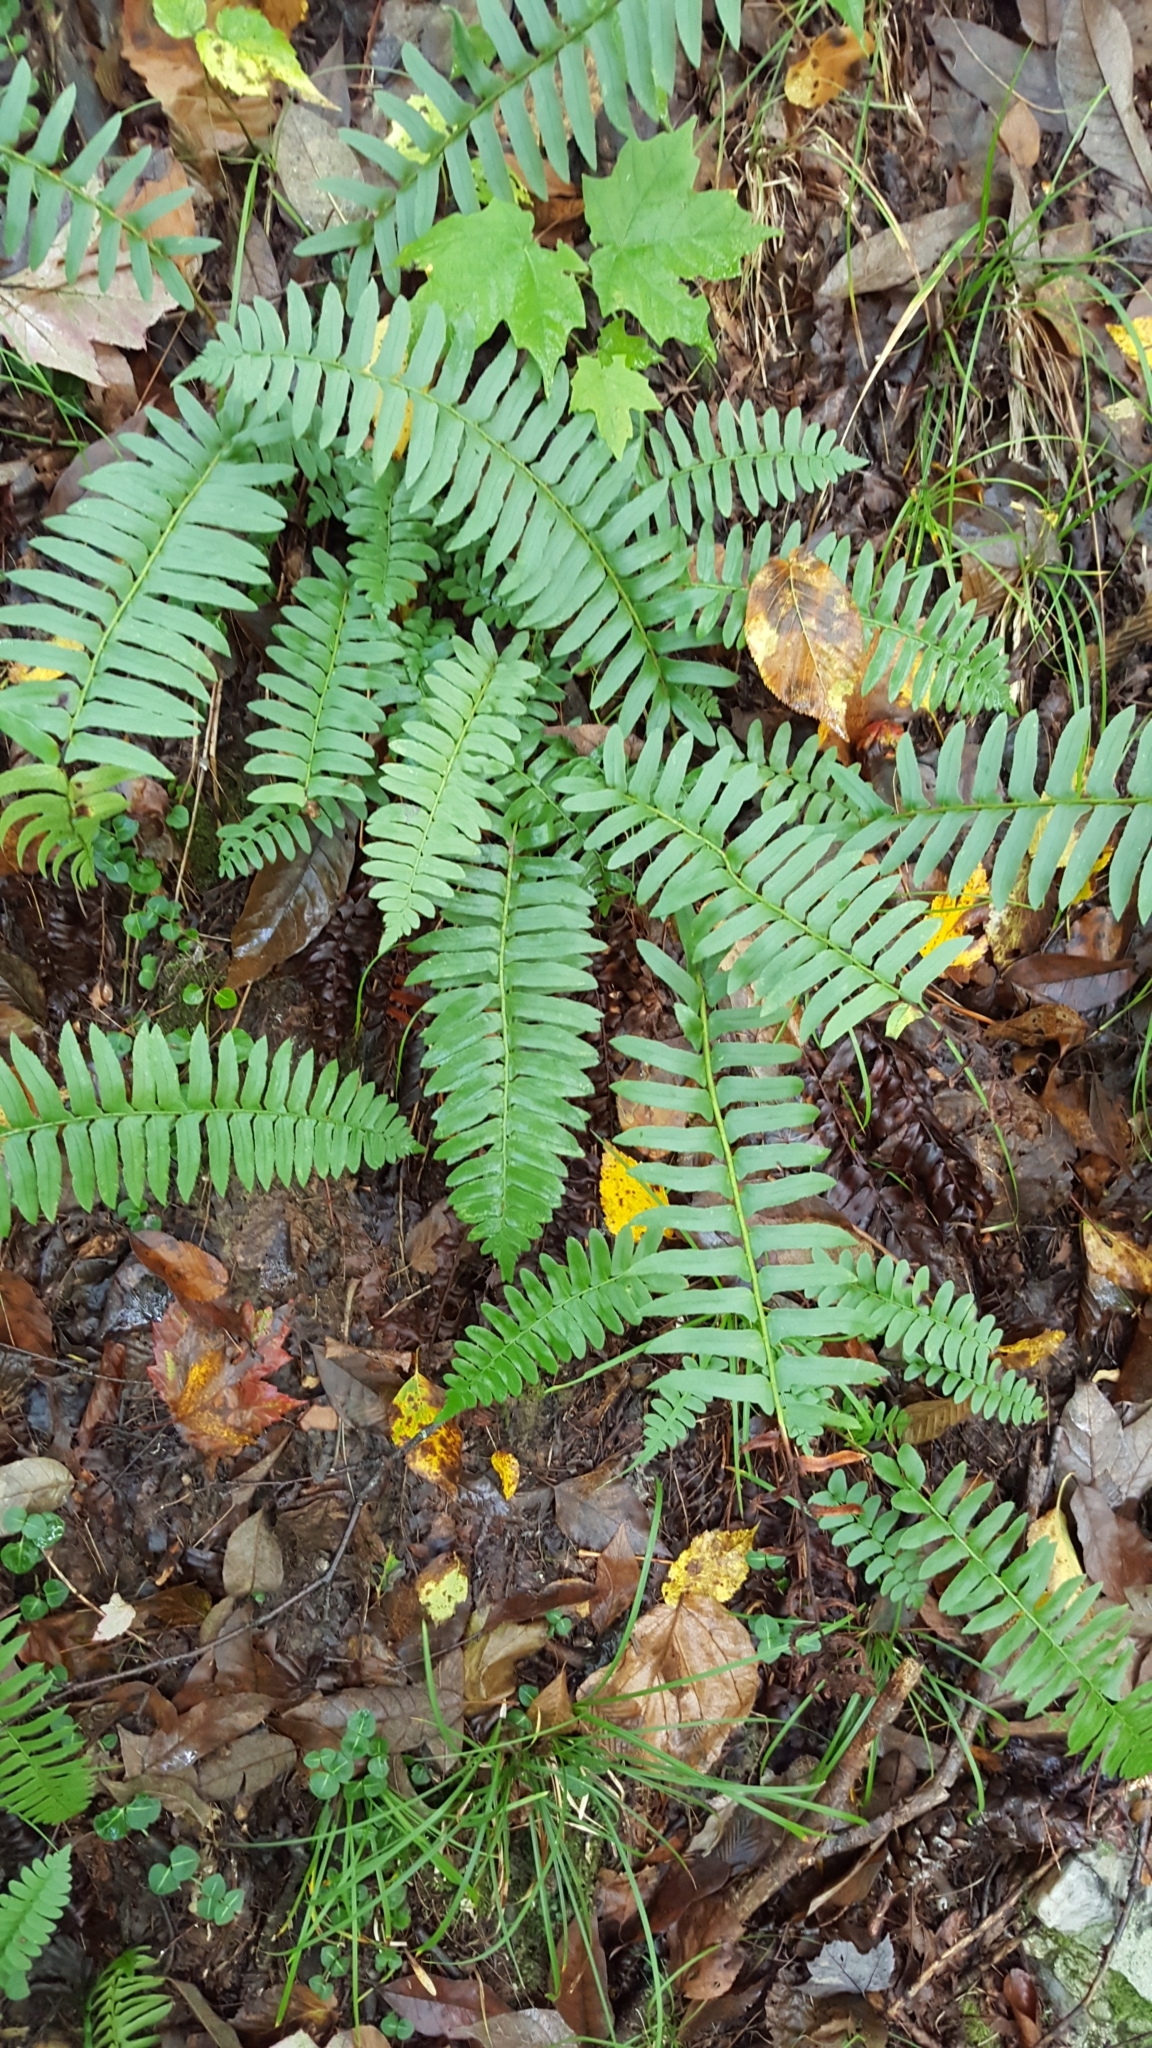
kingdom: Plantae
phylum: Tracheophyta
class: Polypodiopsida
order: Polypodiales
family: Dryopteridaceae
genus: Polystichum
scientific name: Polystichum acrostichoides
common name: Christmas fern
